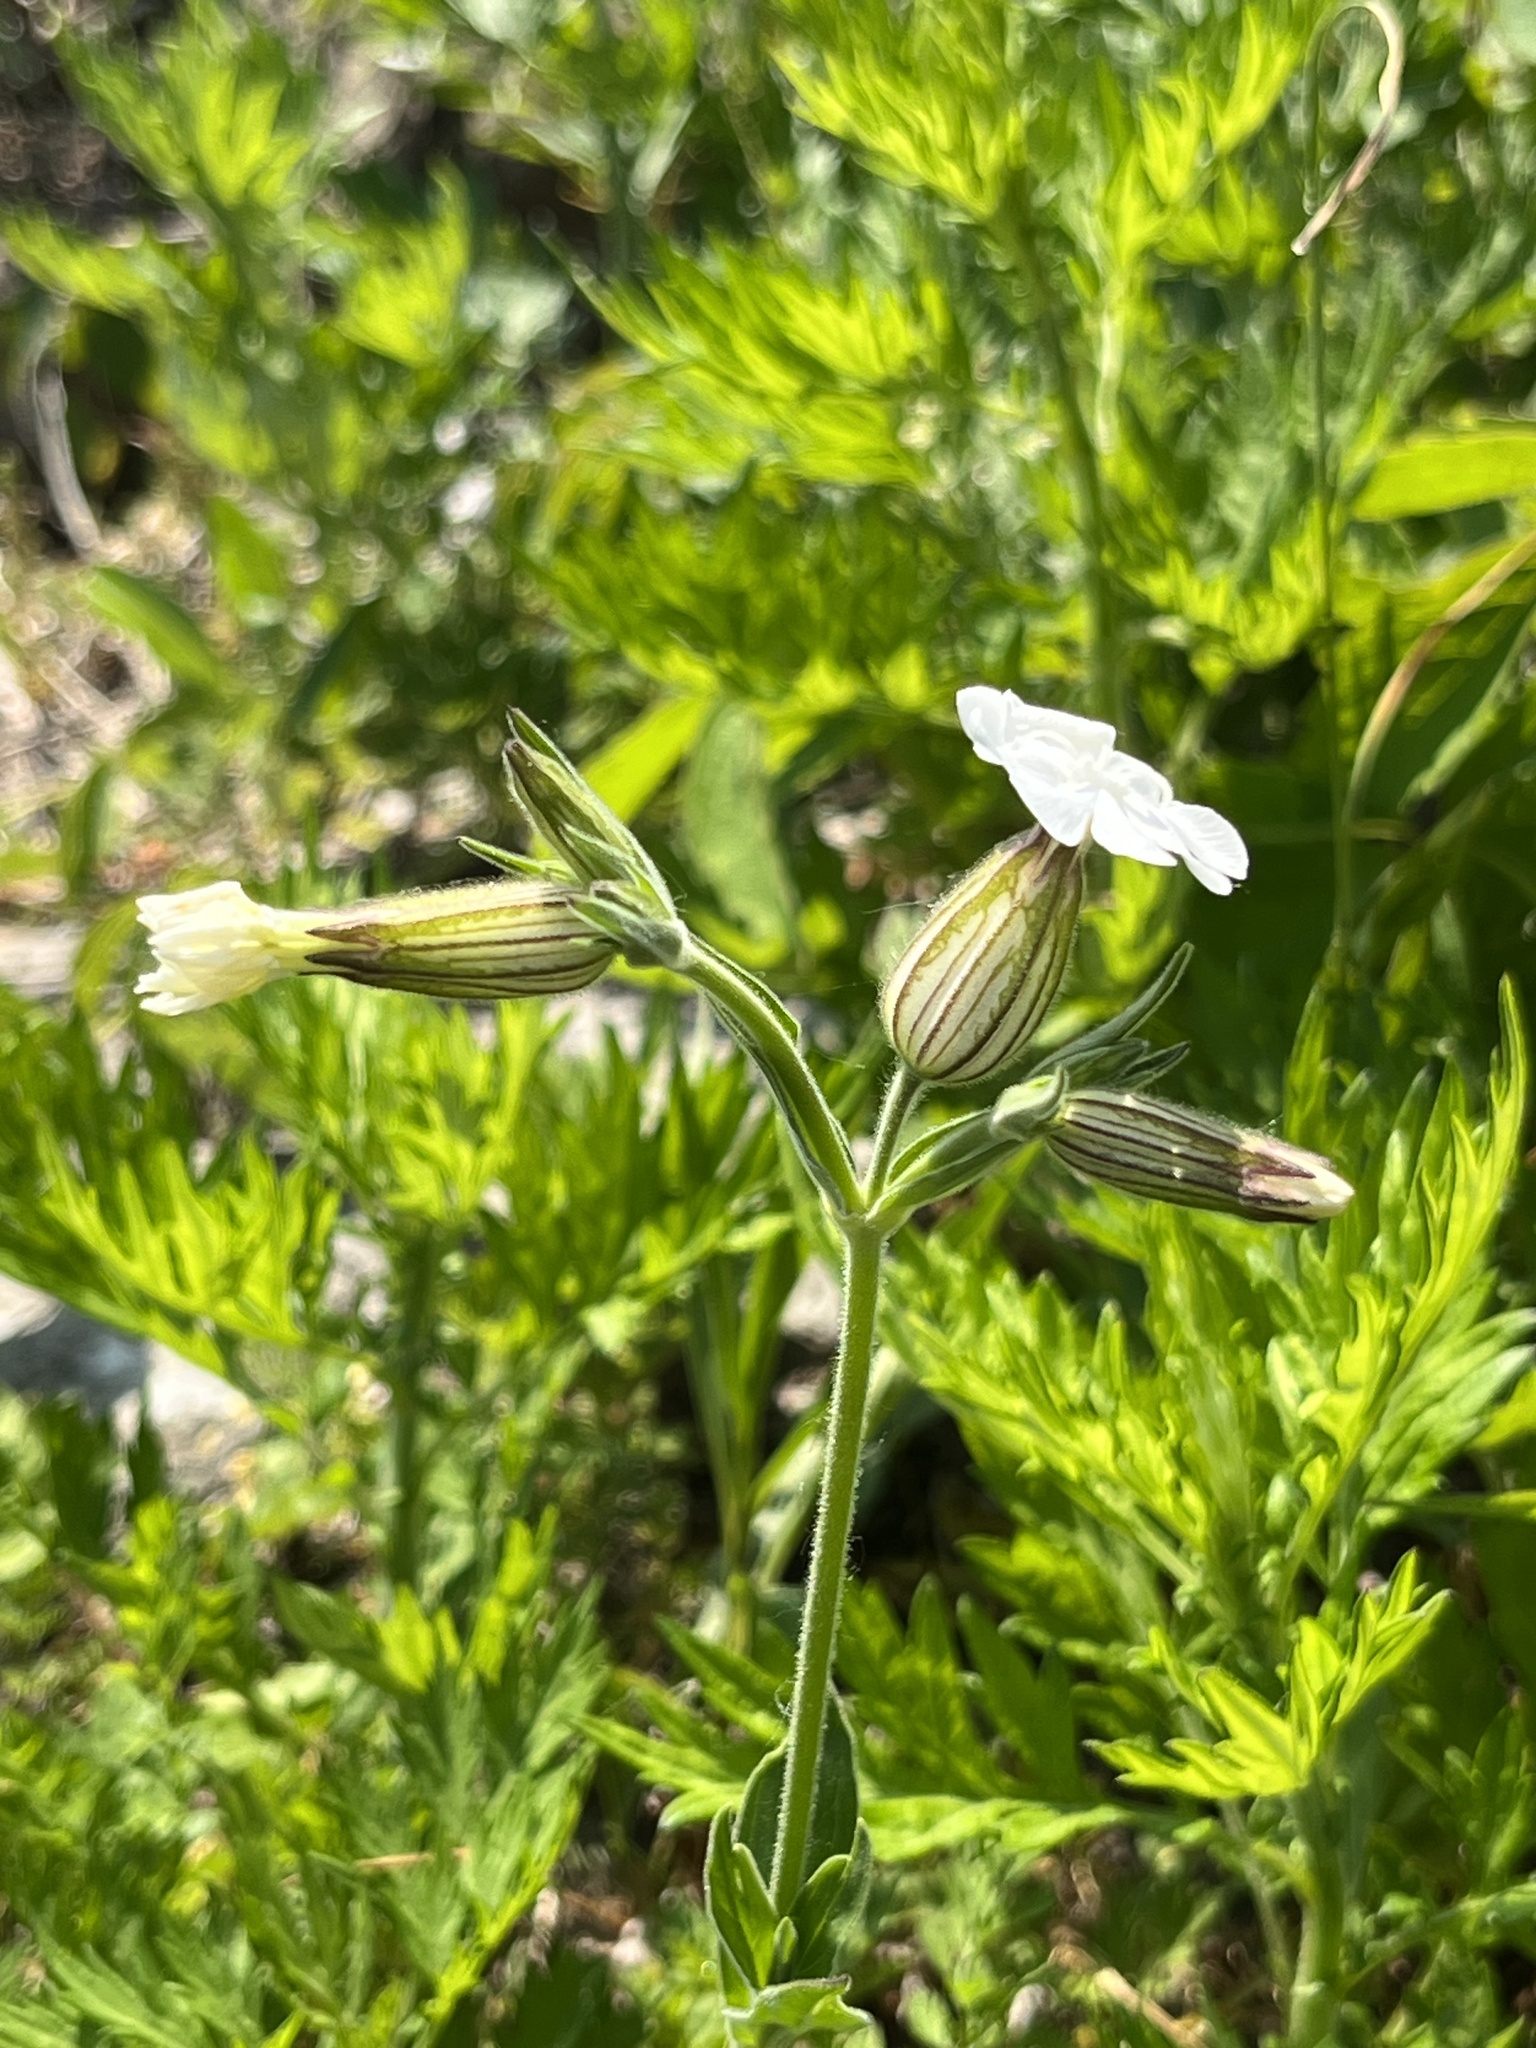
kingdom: Plantae
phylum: Tracheophyta
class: Magnoliopsida
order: Caryophyllales
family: Caryophyllaceae
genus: Silene
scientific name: Silene latifolia
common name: White campion
